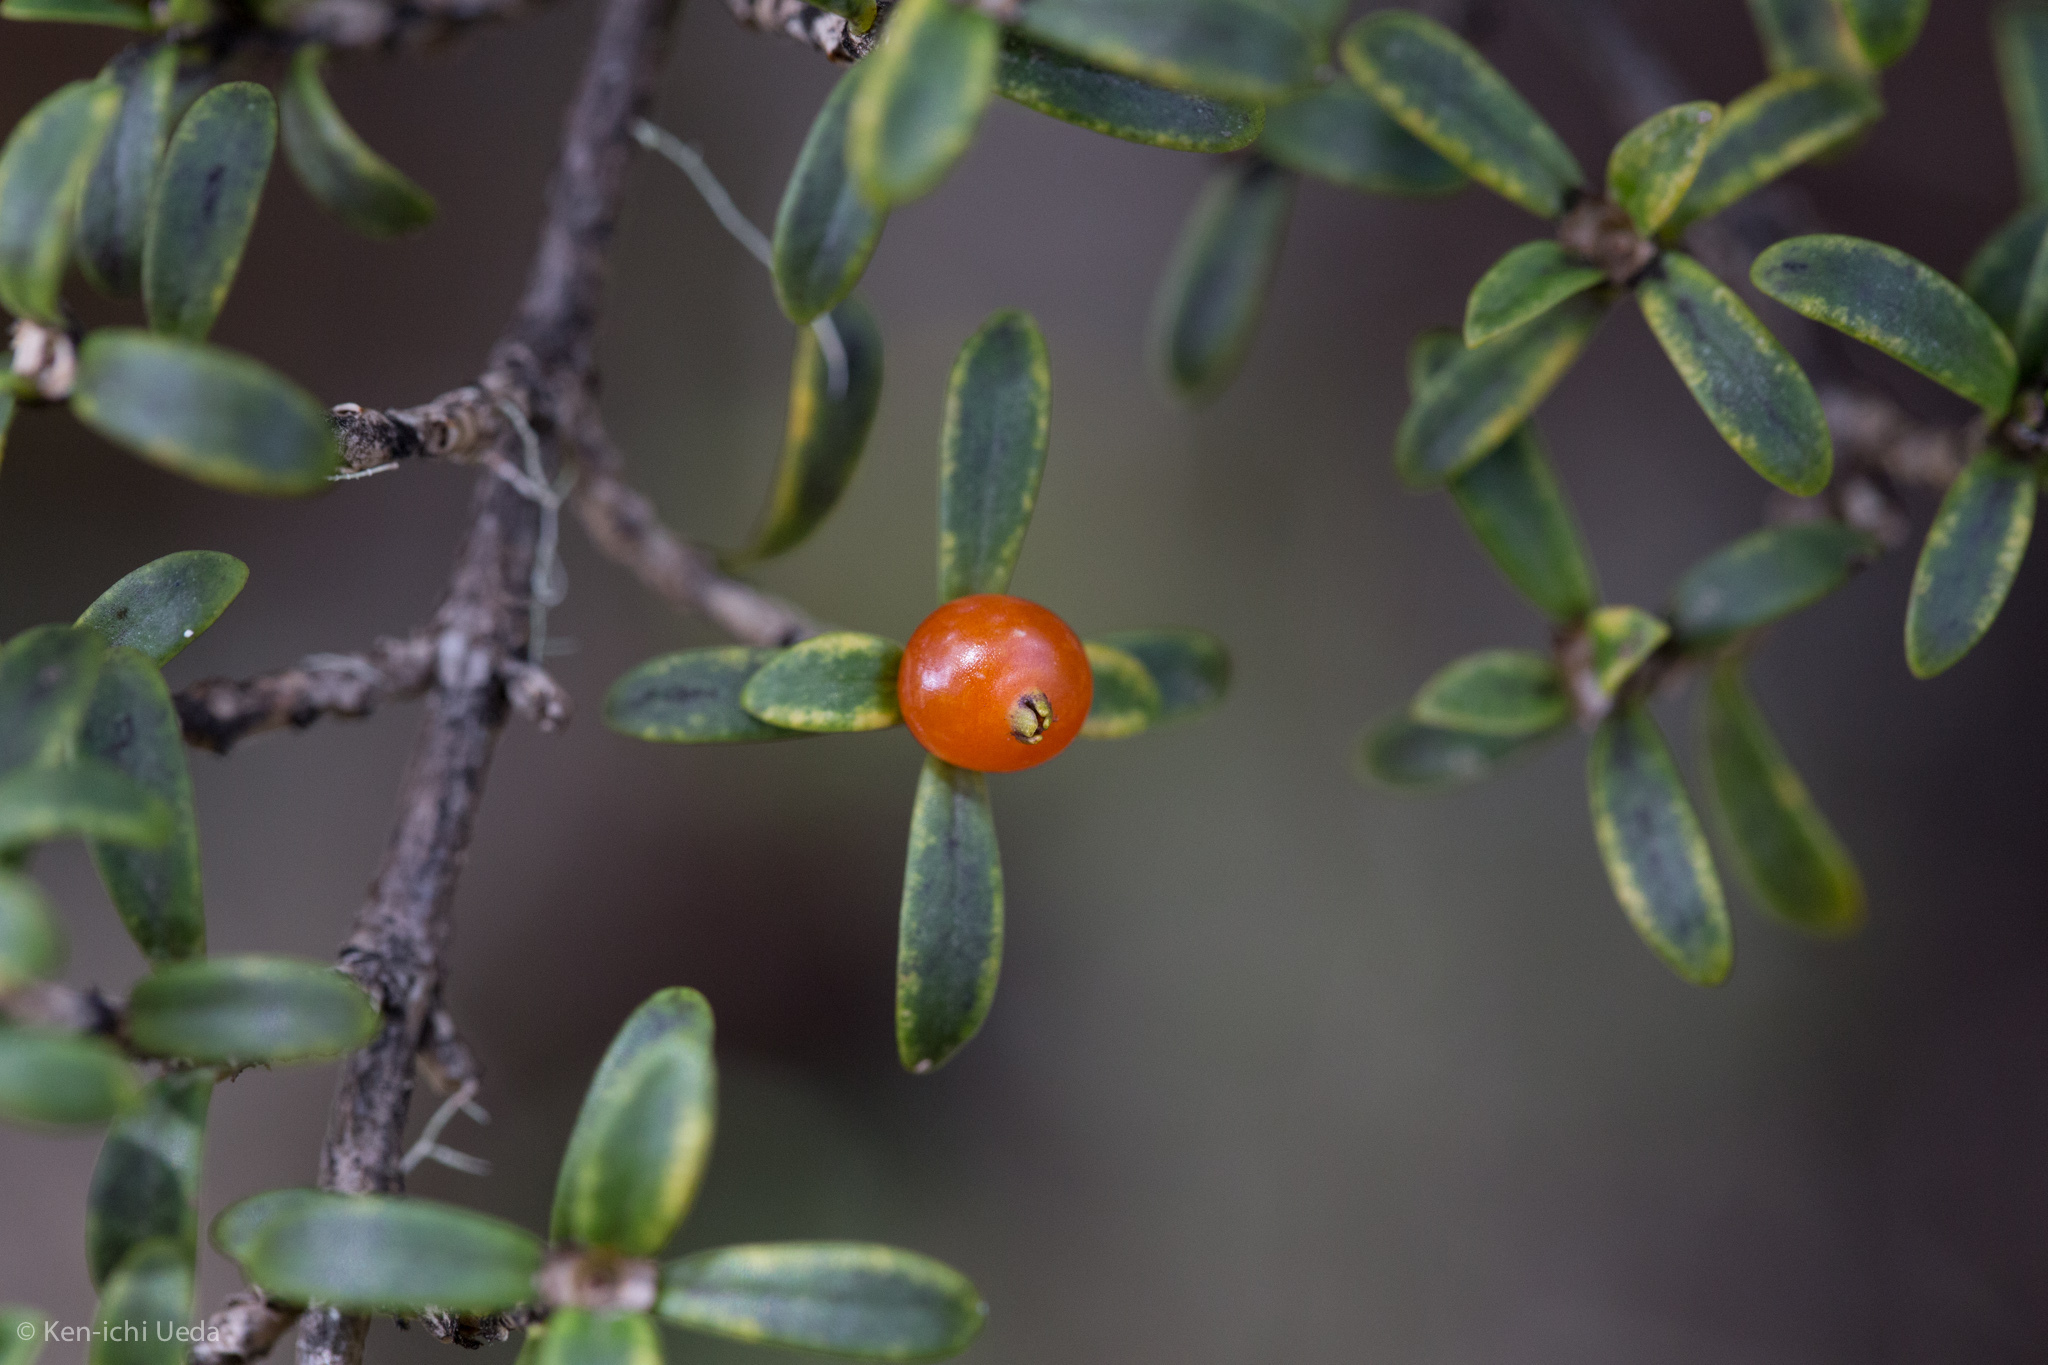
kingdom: Plantae
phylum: Tracheophyta
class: Magnoliopsida
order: Gentianales
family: Rubiaceae
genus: Coprosma
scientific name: Coprosma pseudocuneata
